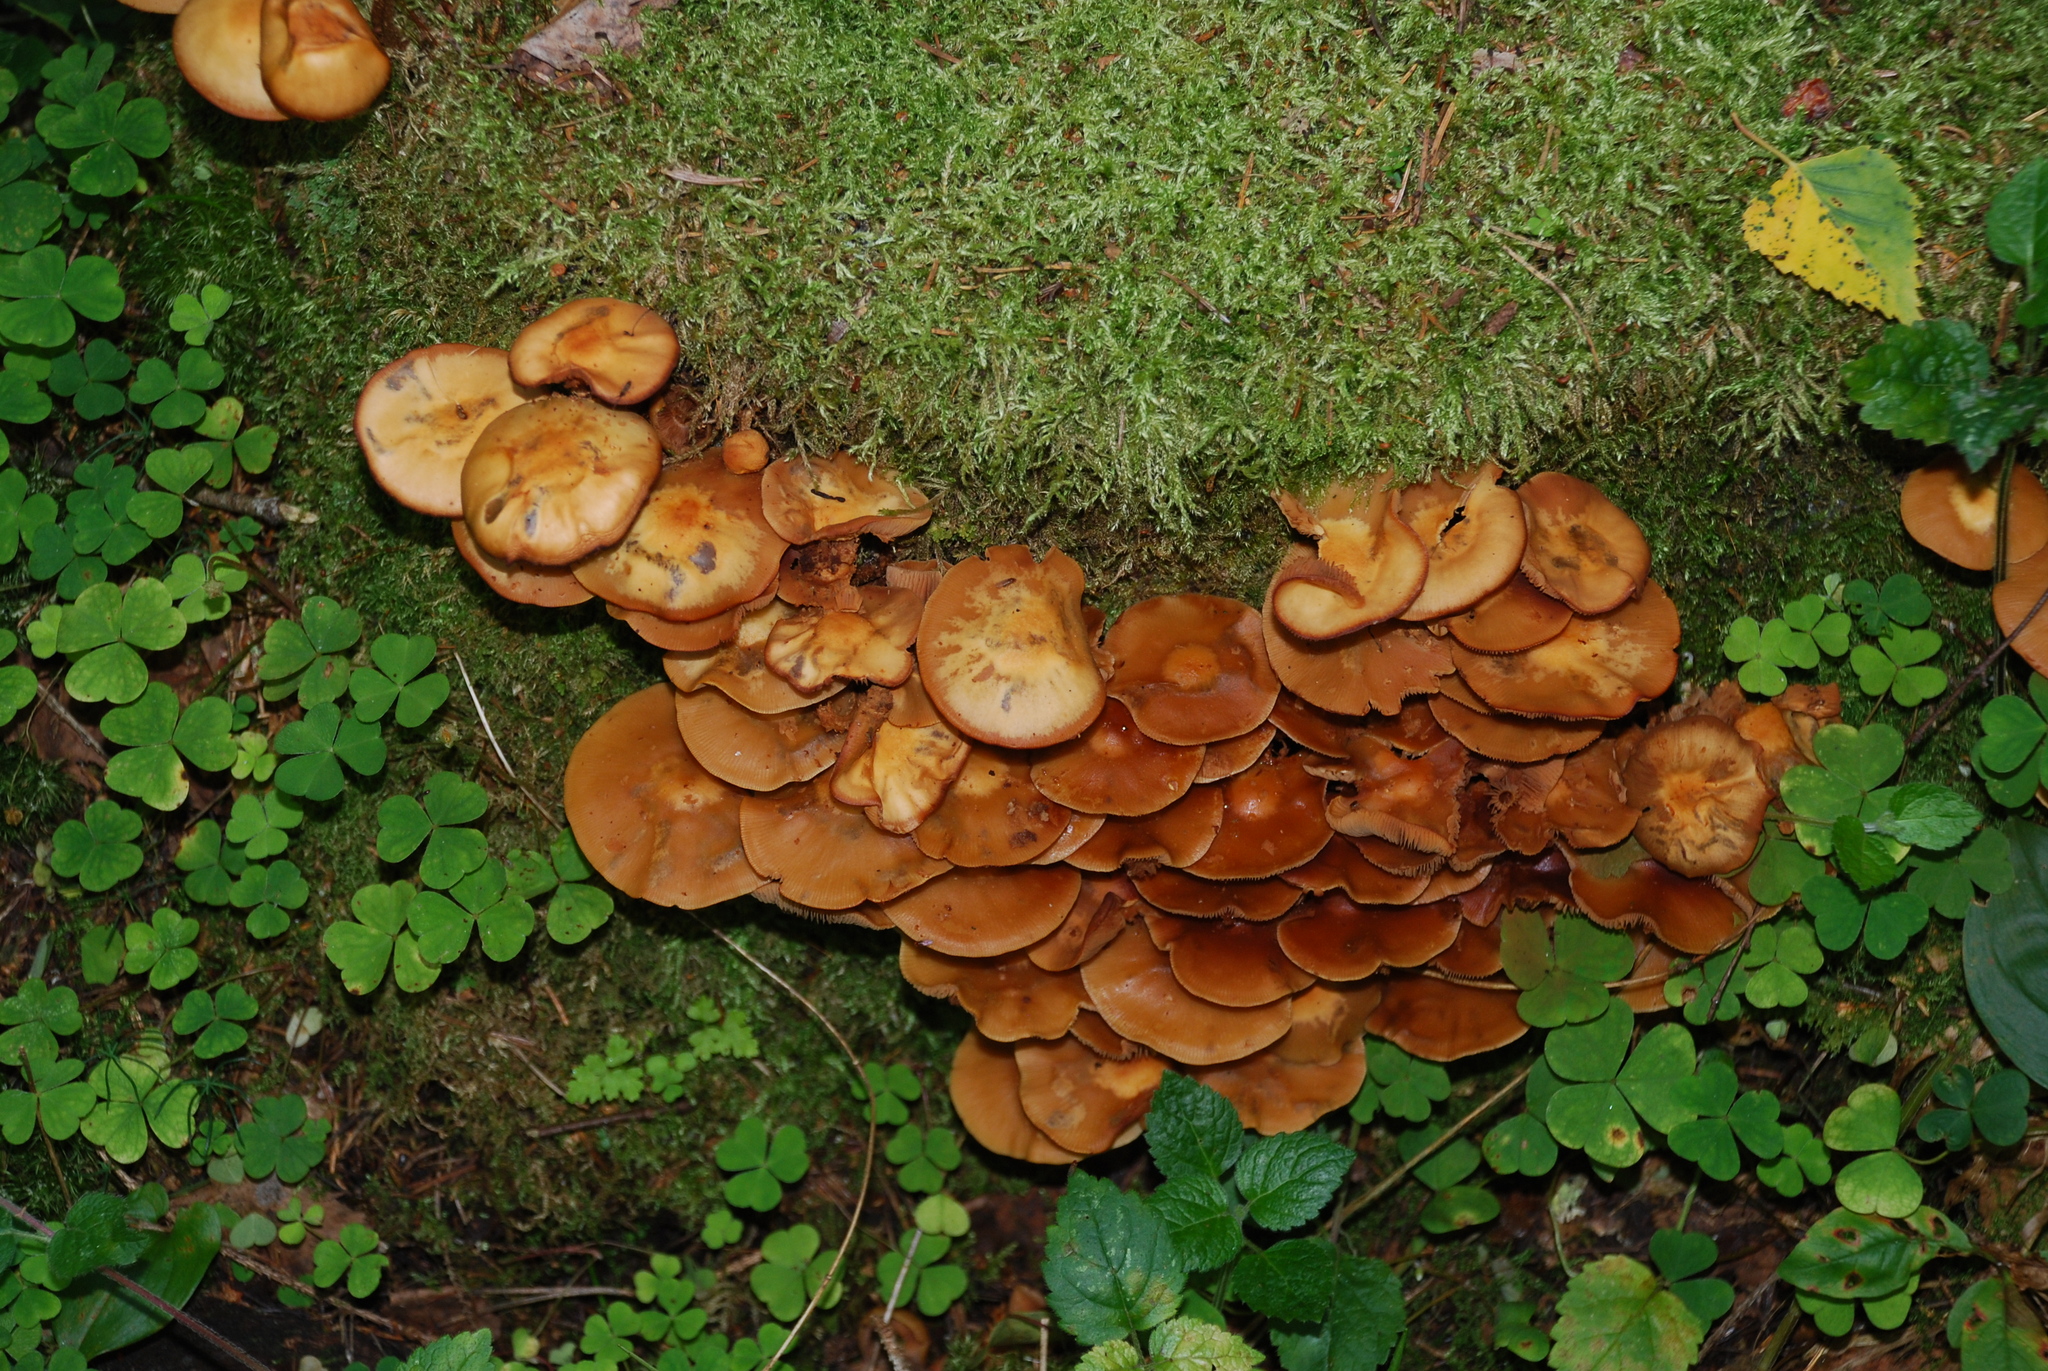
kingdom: Fungi
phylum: Basidiomycota
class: Agaricomycetes
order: Agaricales
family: Strophariaceae
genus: Kuehneromyces
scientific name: Kuehneromyces mutabilis
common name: Sheathed woodtuft
